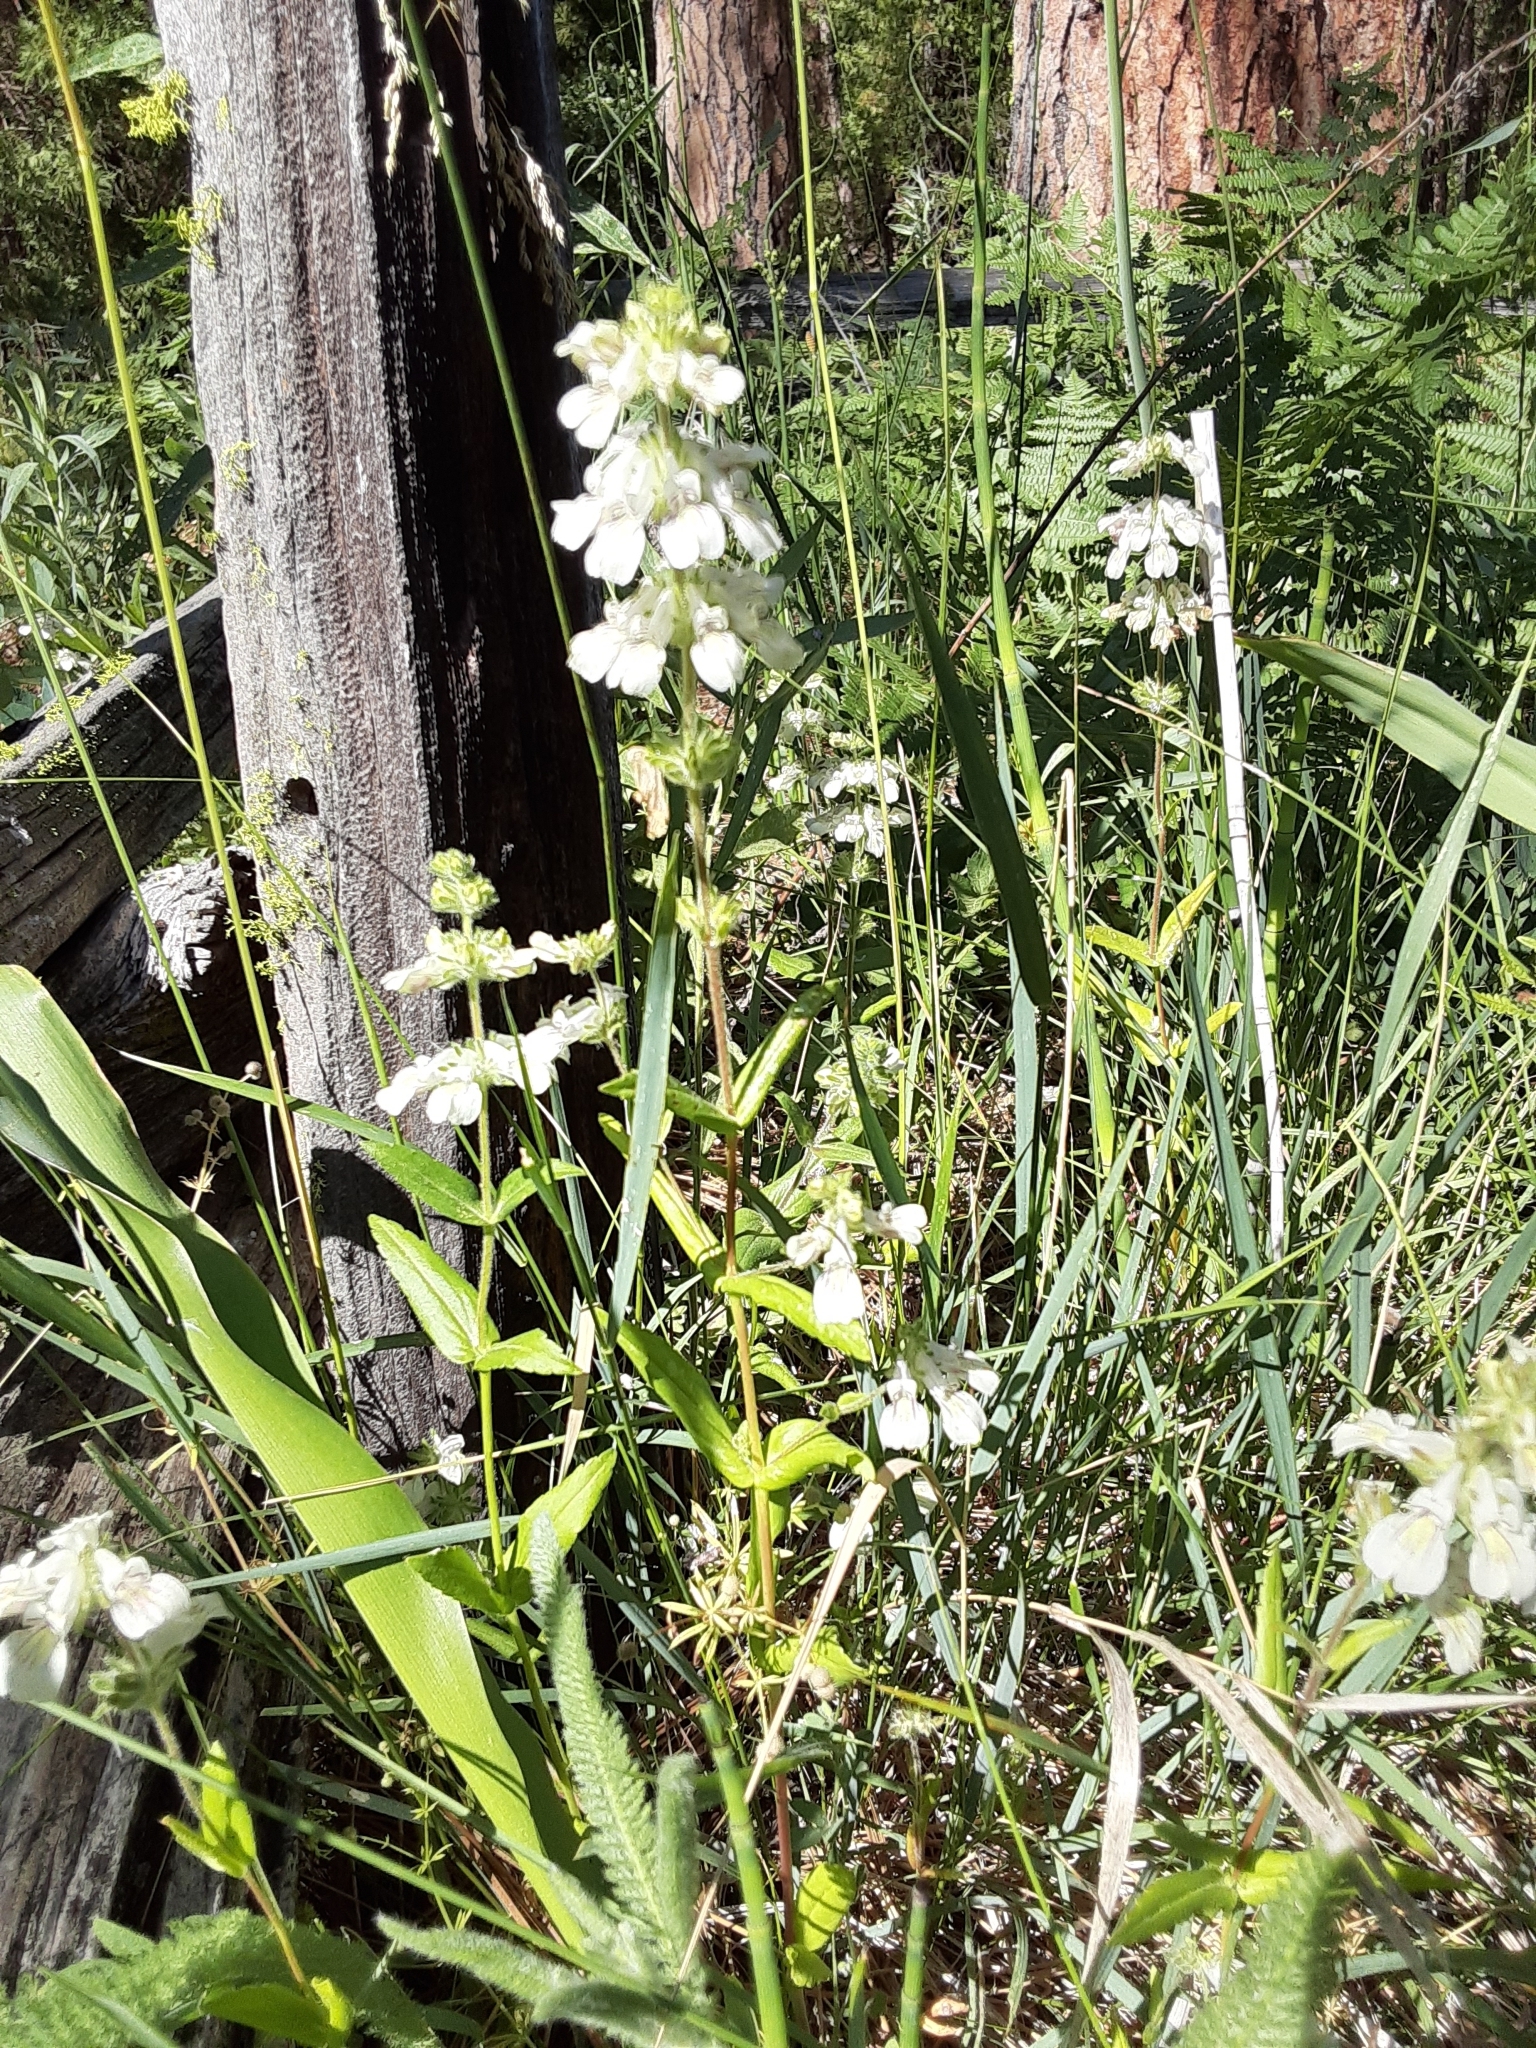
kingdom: Plantae
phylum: Tracheophyta
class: Magnoliopsida
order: Lamiales
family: Plantaginaceae
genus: Collinsia
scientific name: Collinsia tinctoria
